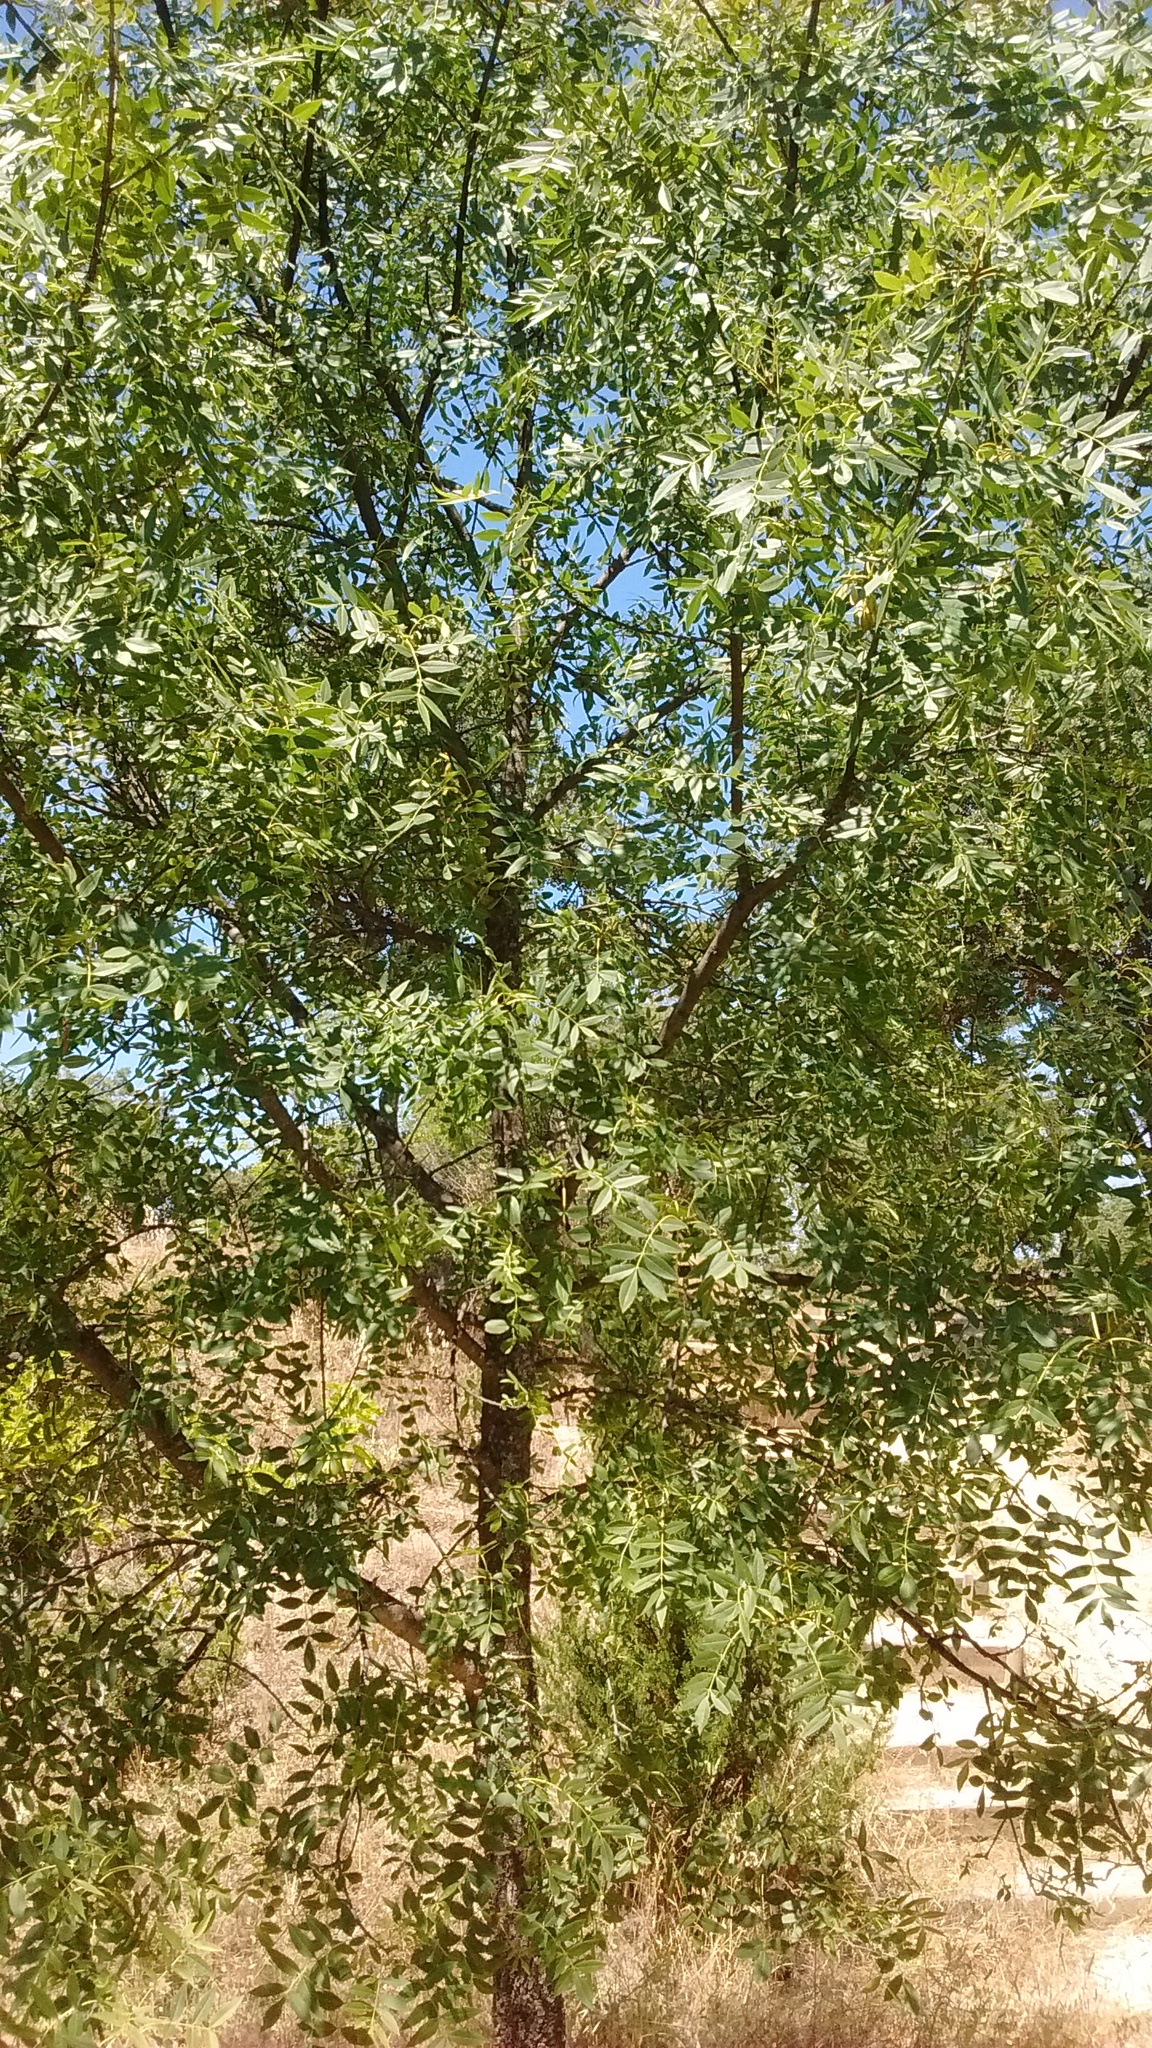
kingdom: Plantae
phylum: Tracheophyta
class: Magnoliopsida
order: Lamiales
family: Oleaceae
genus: Fraxinus
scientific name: Fraxinus angustifolia
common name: Narrow-leafed ash
